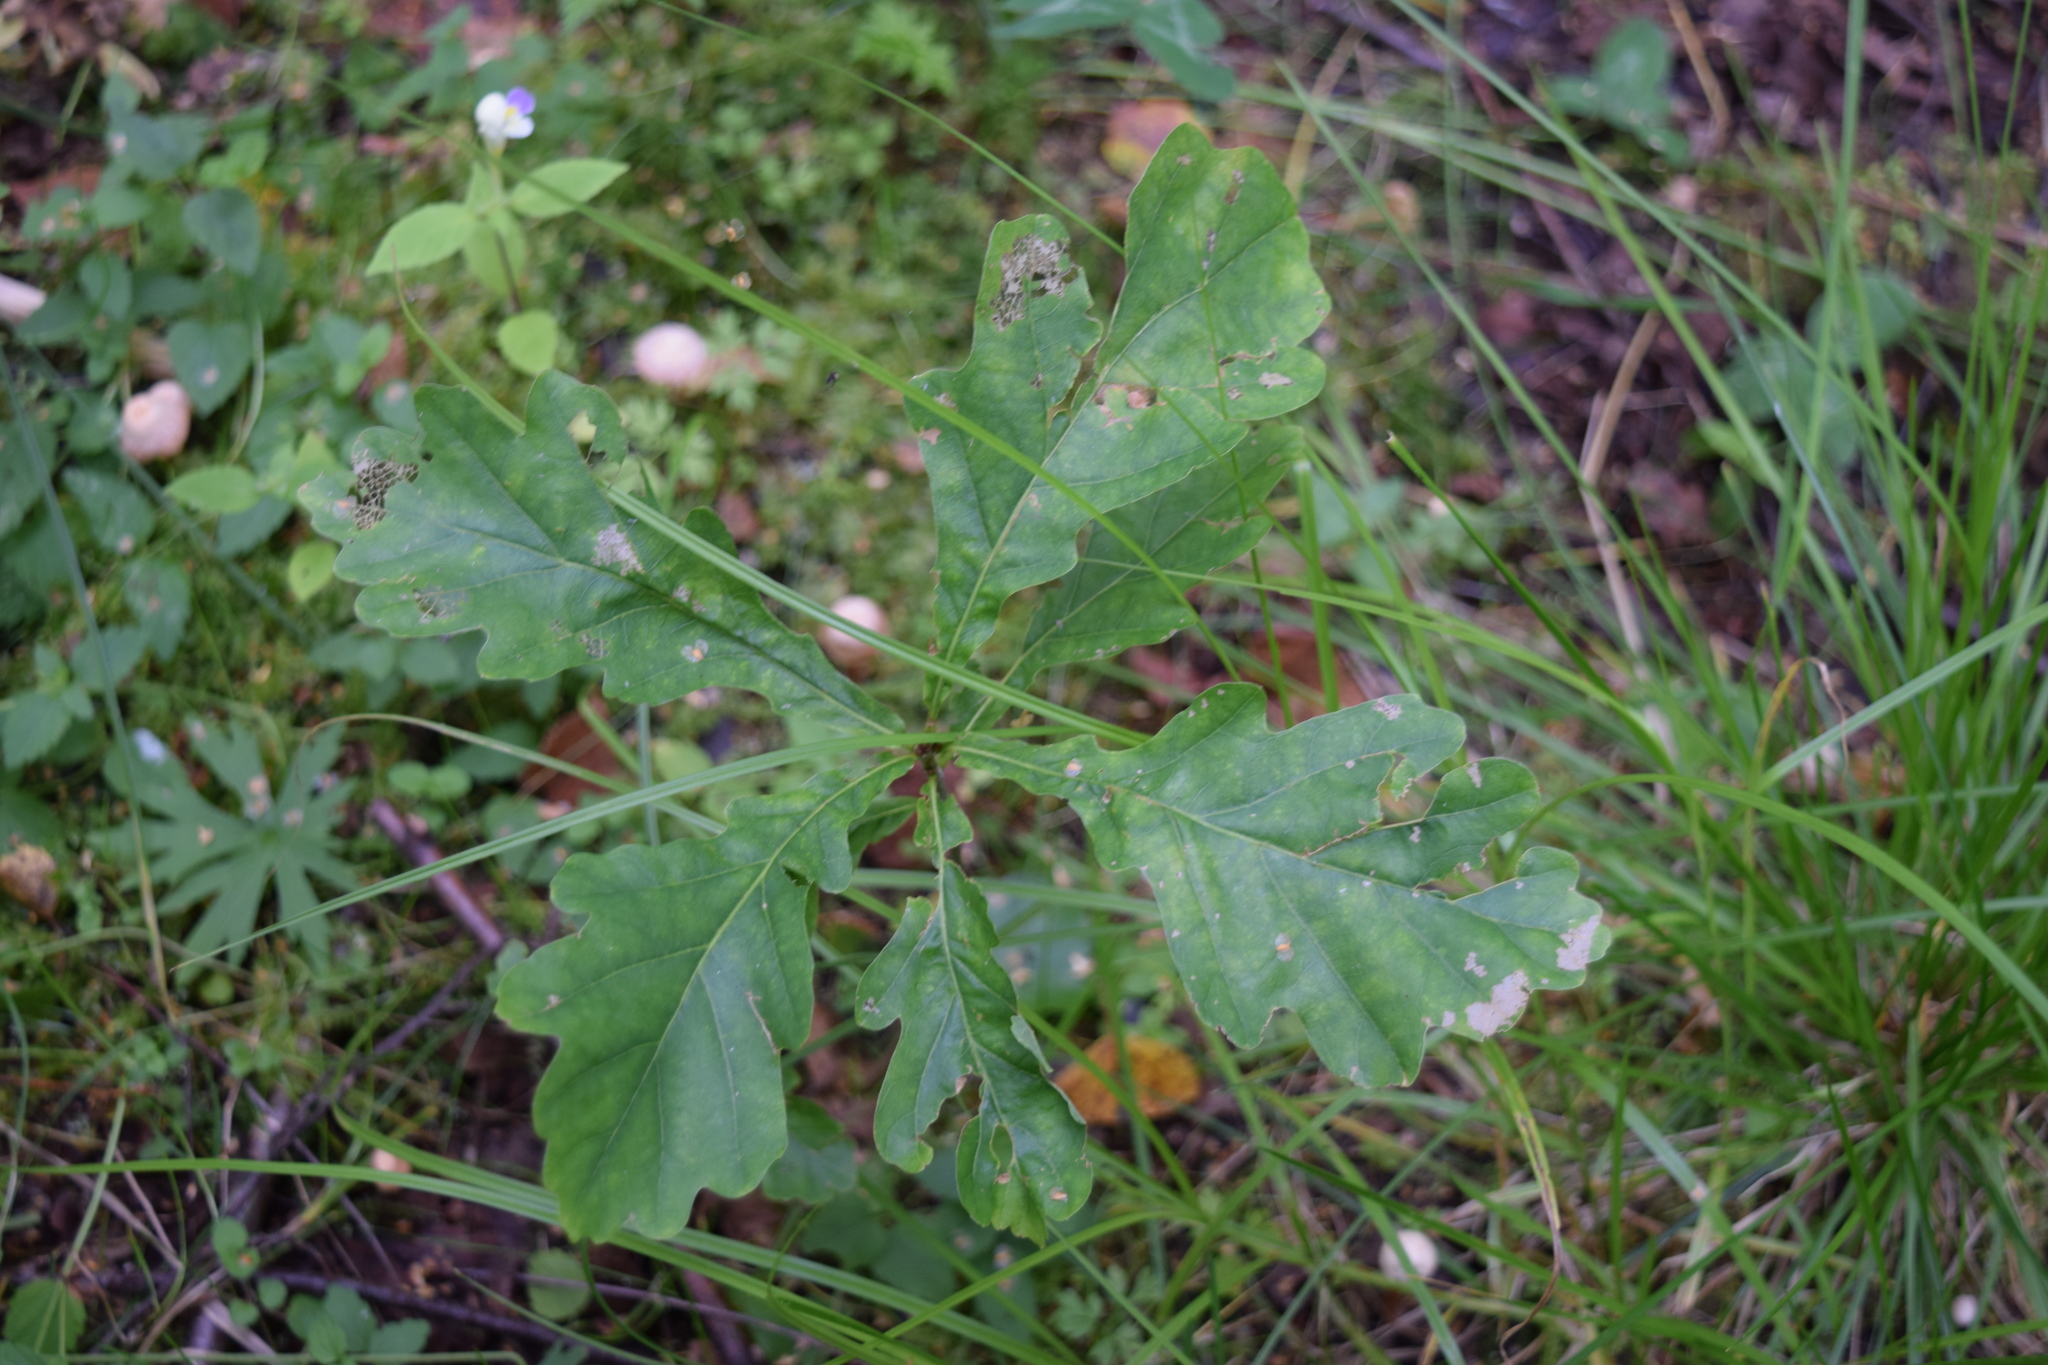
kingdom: Plantae
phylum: Tracheophyta
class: Magnoliopsida
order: Fagales
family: Fagaceae
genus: Quercus
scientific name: Quercus robur
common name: Pedunculate oak
